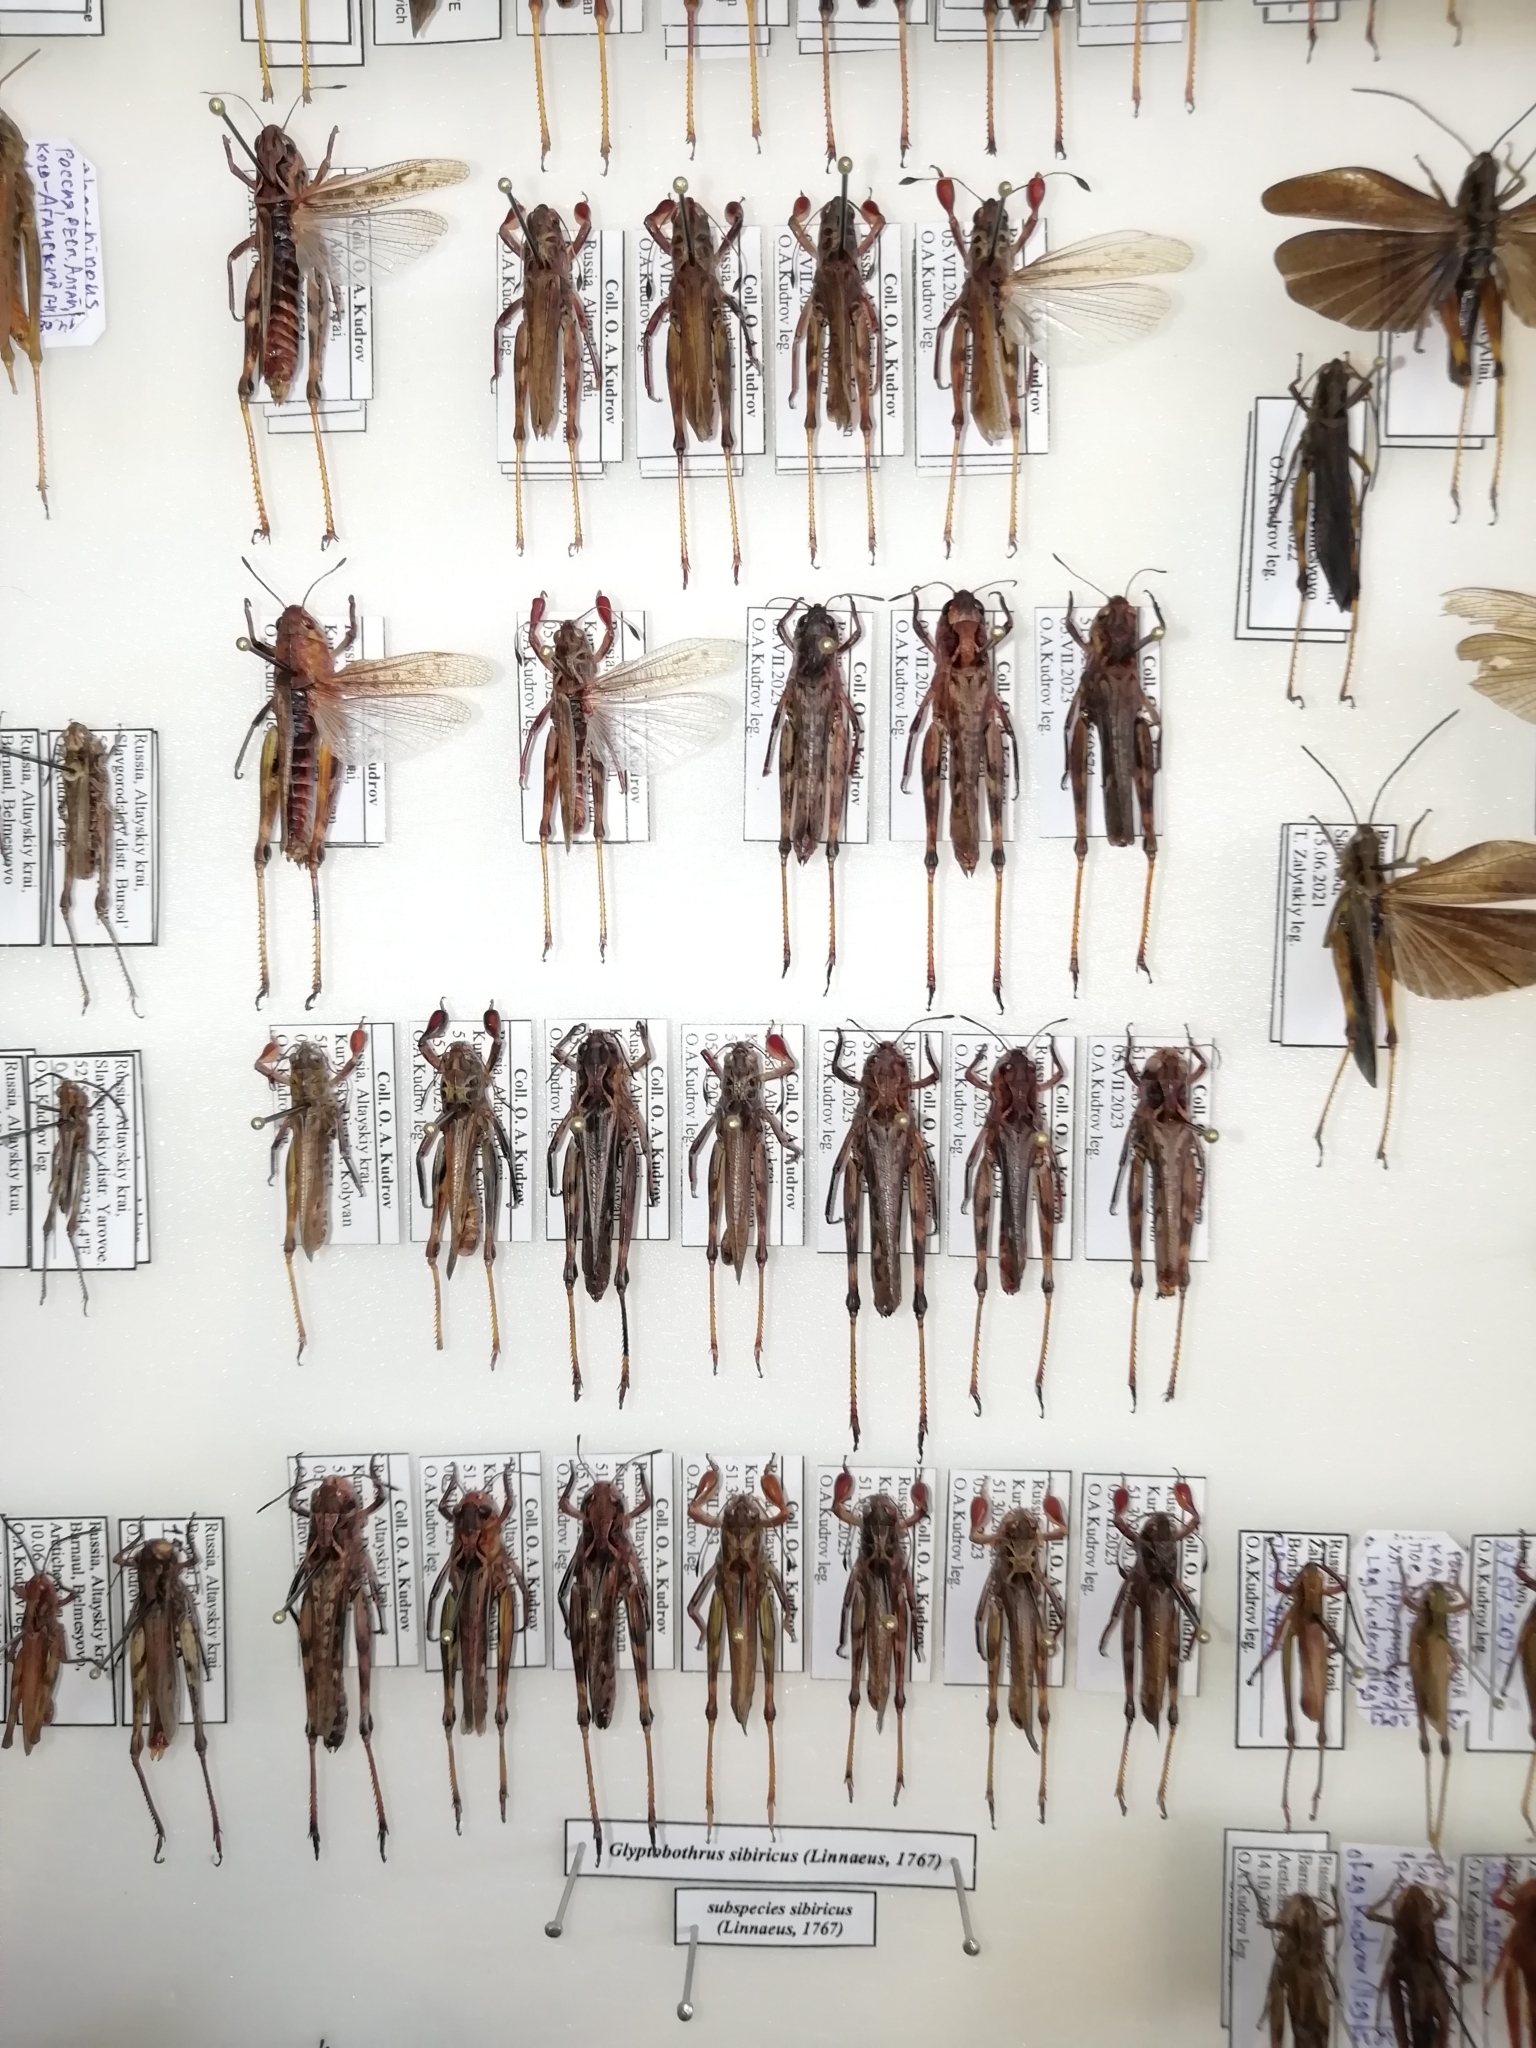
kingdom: Animalia
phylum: Arthropoda
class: Insecta
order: Orthoptera
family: Acrididae
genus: Gomphocerus
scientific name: Gomphocerus sibiricus
